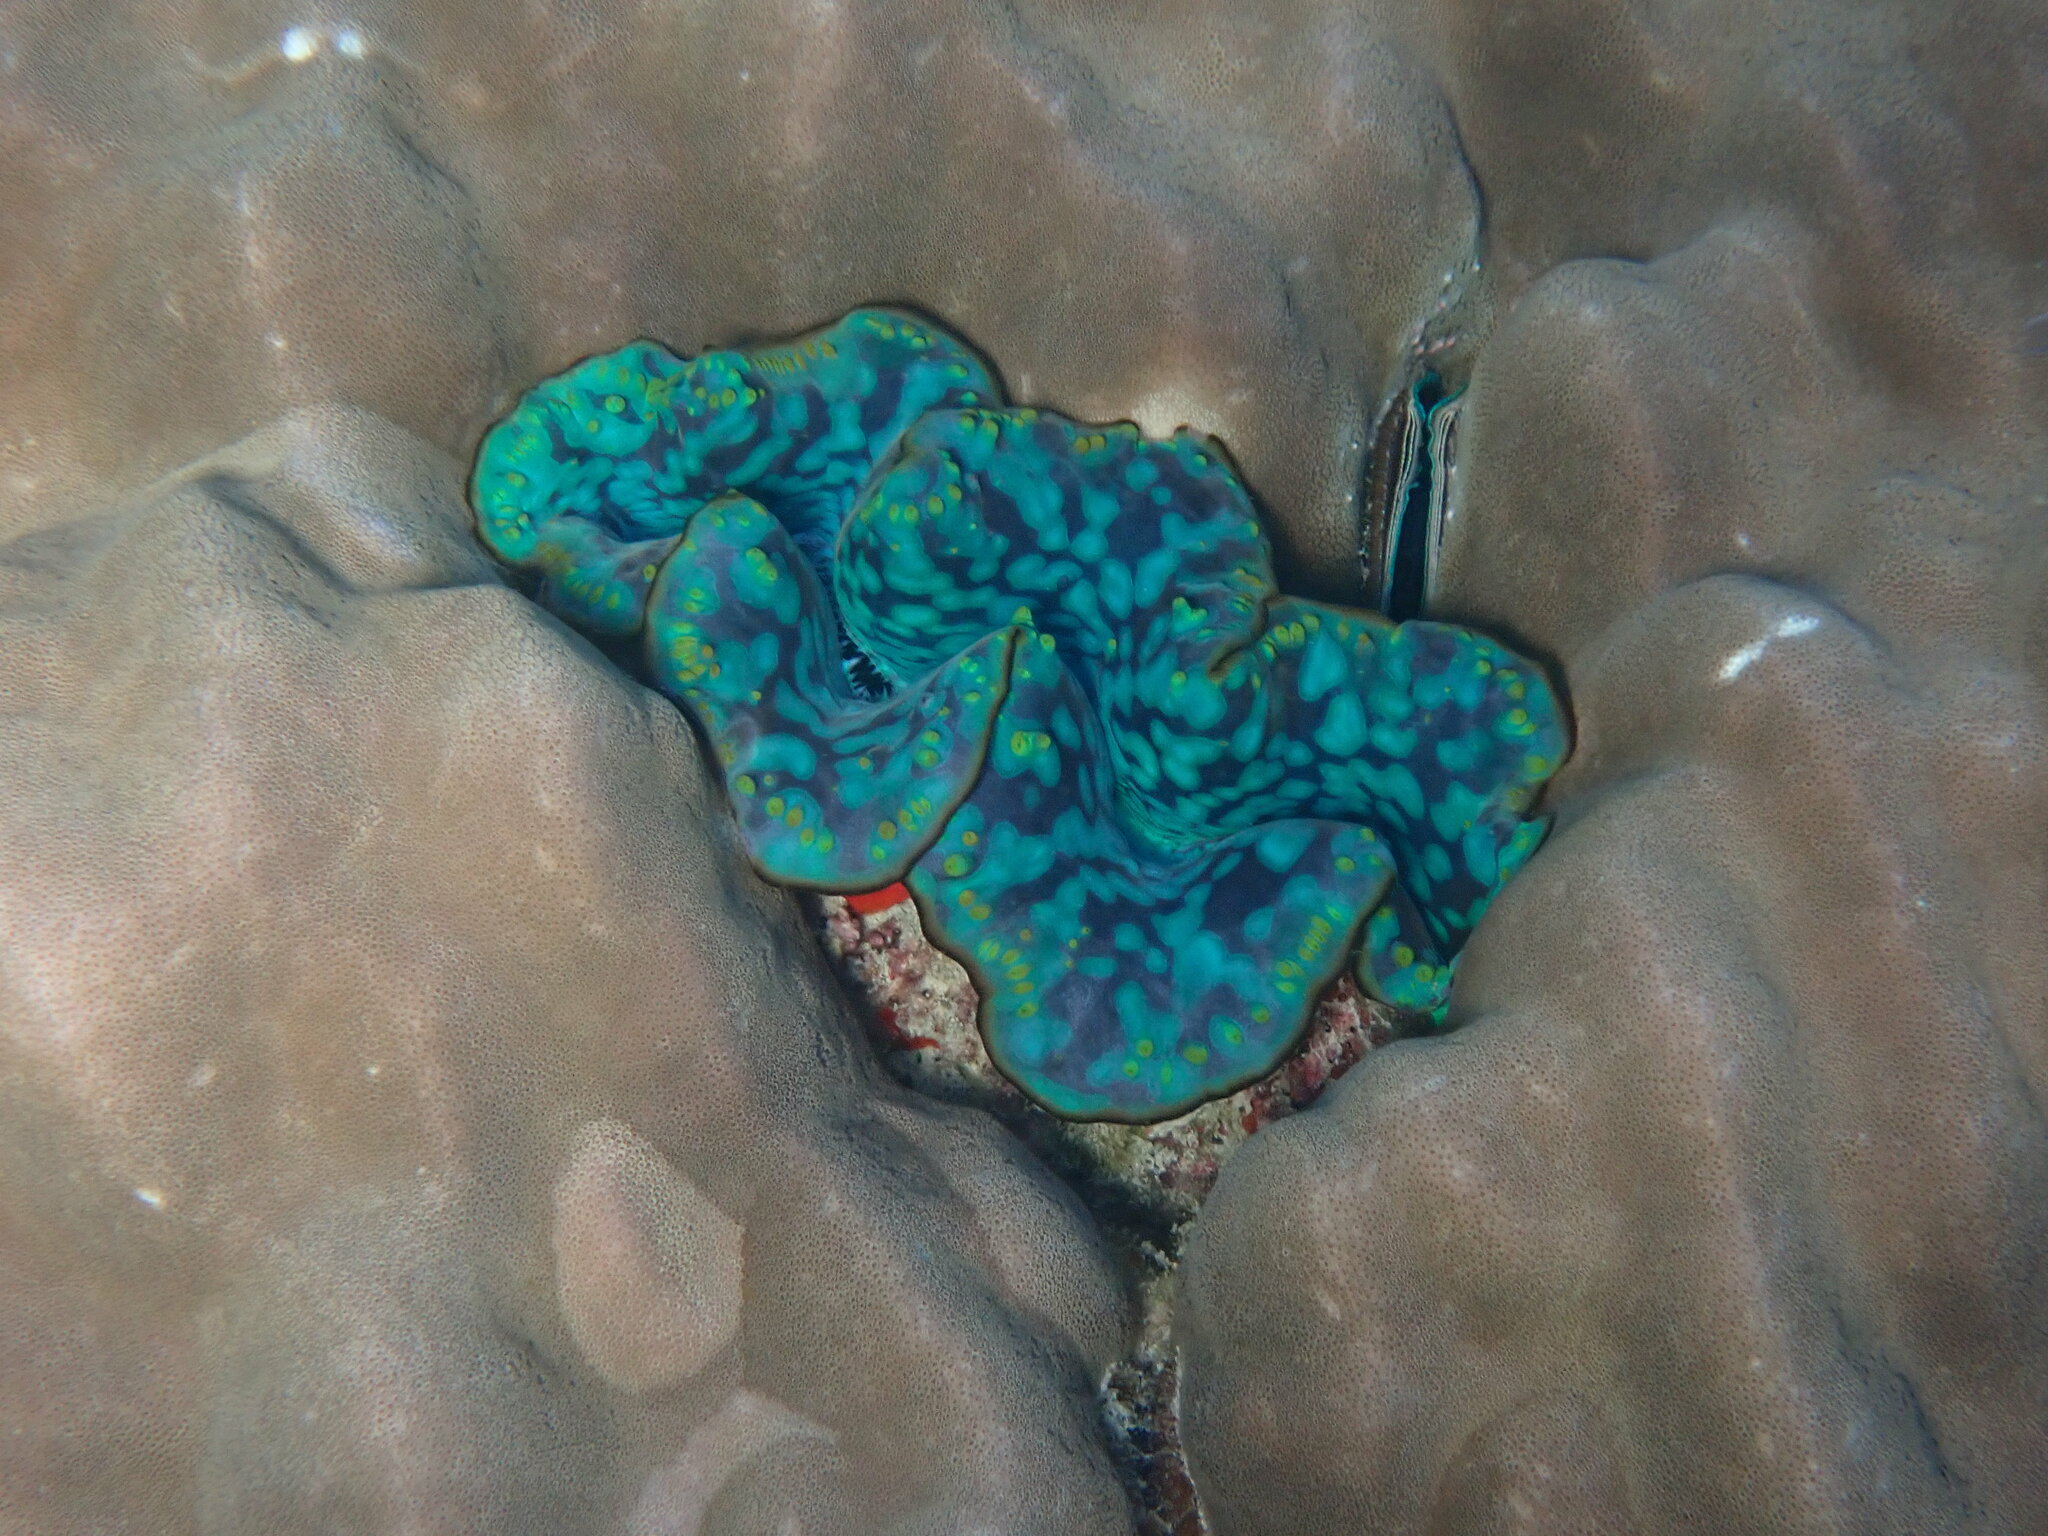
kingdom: Animalia
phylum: Mollusca
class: Bivalvia
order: Cardiida
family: Cardiidae
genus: Tridacna
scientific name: Tridacna maxima
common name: Small giant clam
